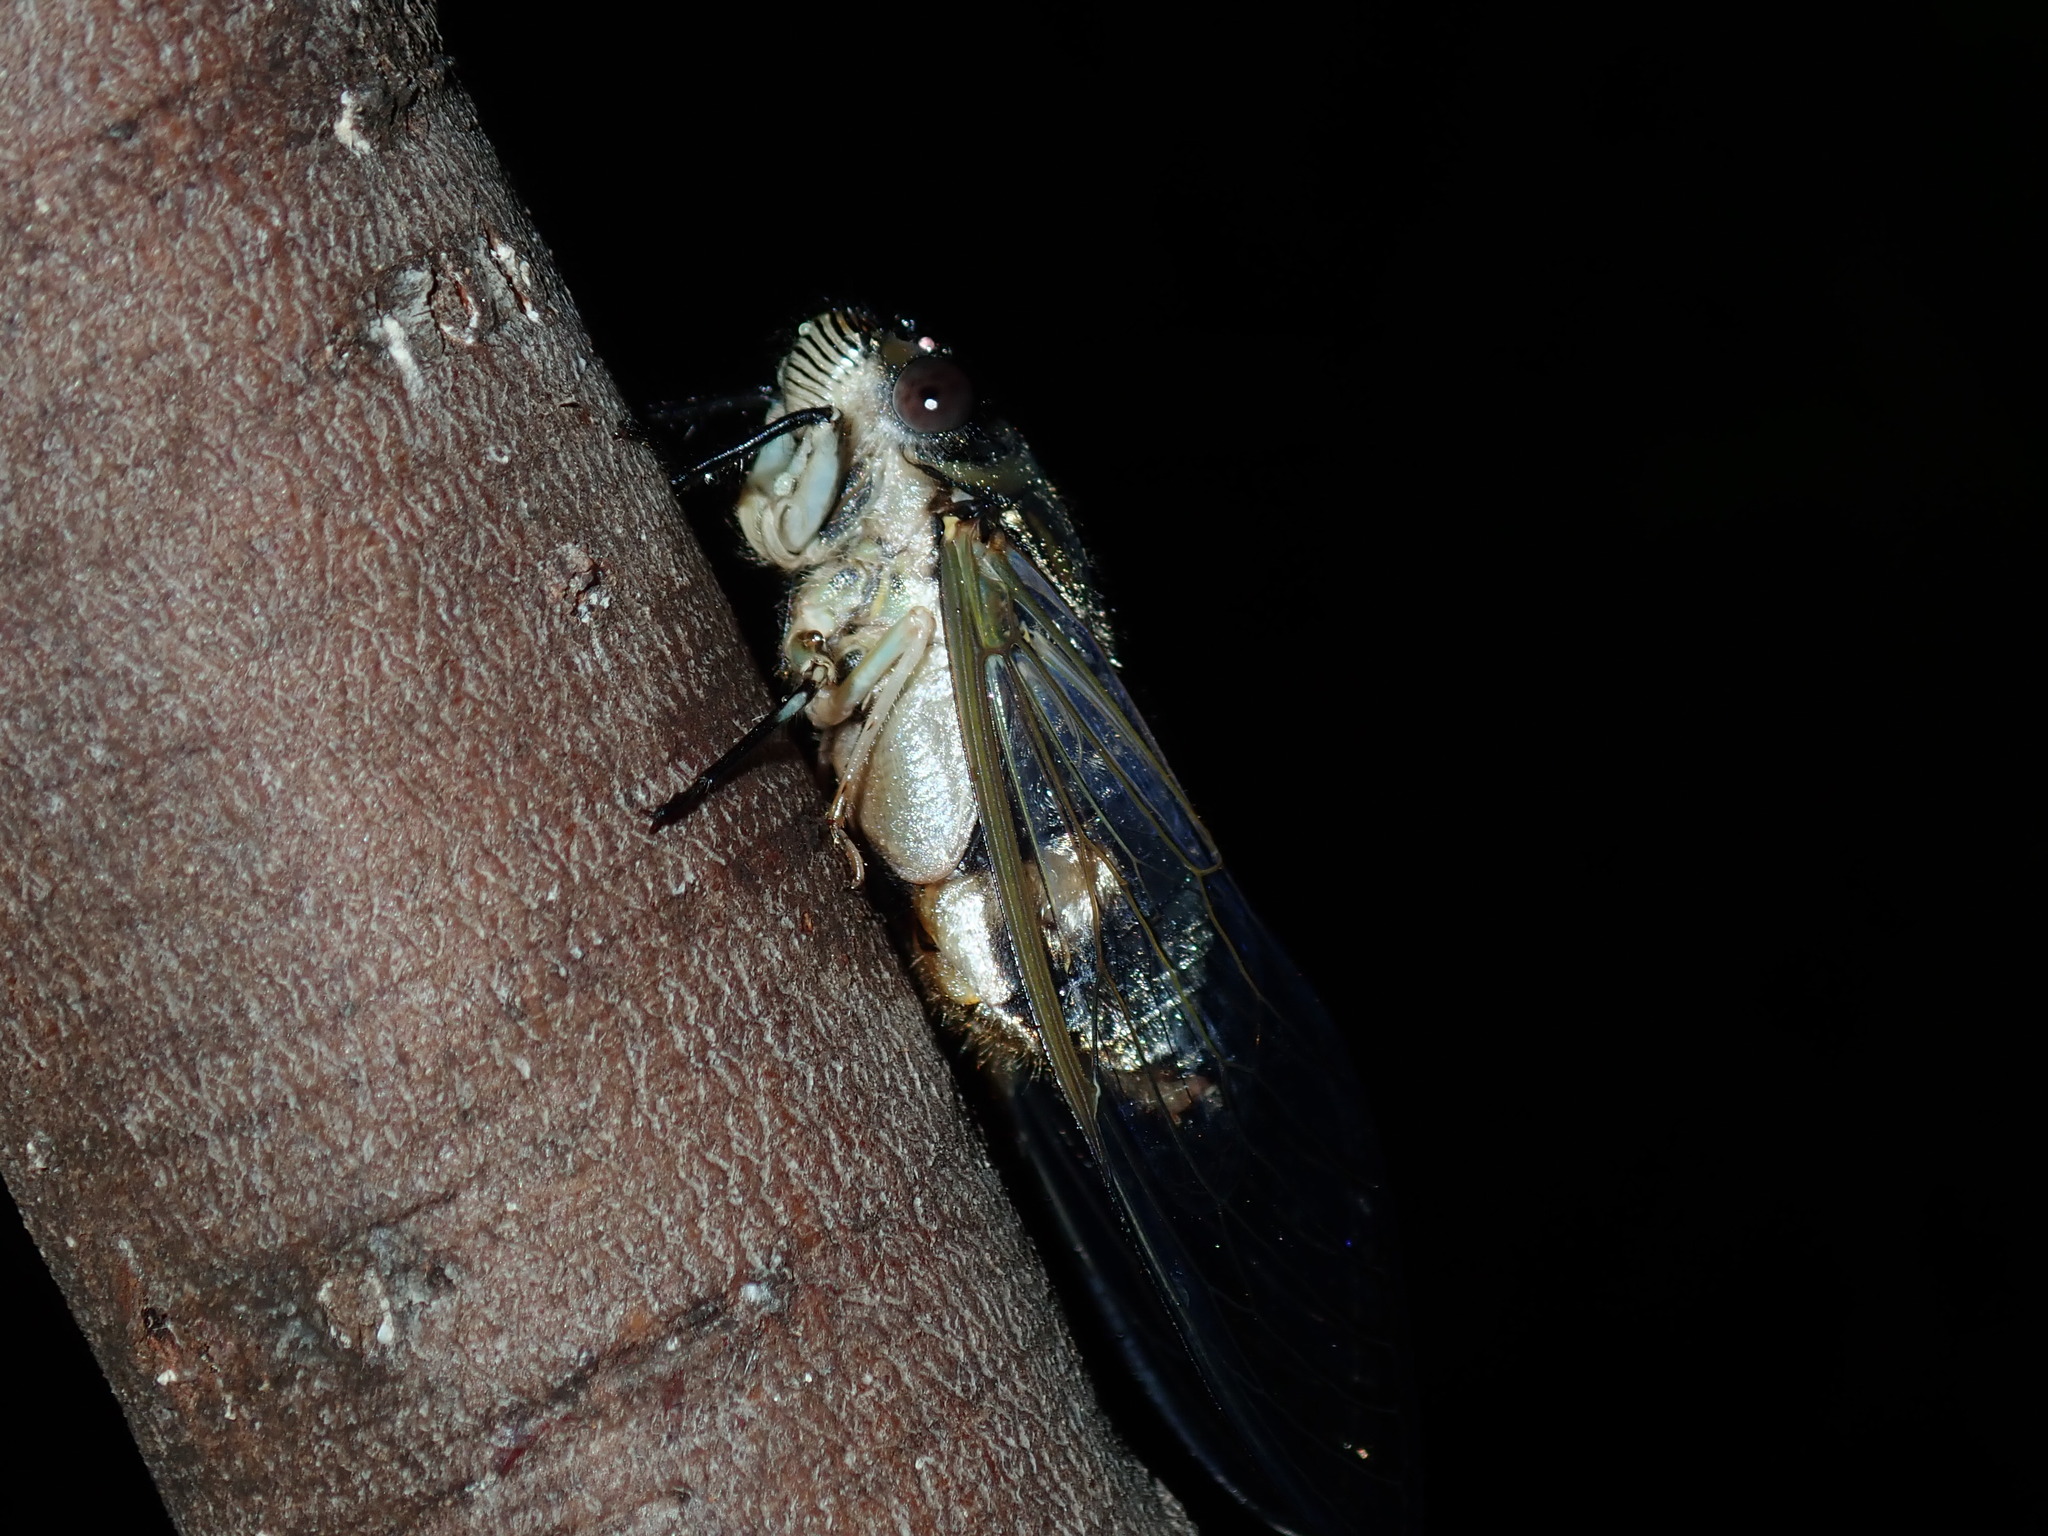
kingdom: Animalia
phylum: Arthropoda
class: Insecta
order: Hemiptera
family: Cicadidae
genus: Psaltoda
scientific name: Psaltoda mossi
